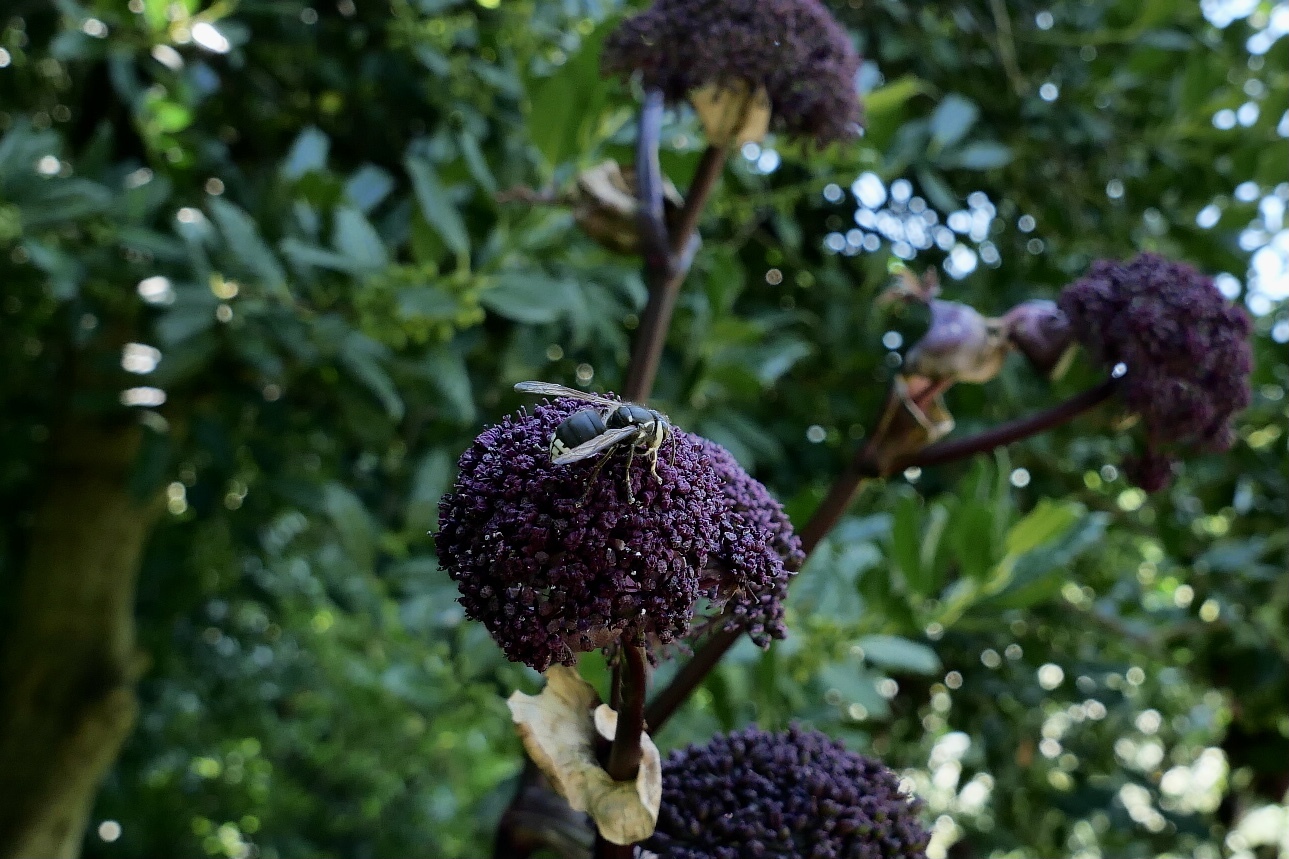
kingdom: Animalia
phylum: Arthropoda
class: Insecta
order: Hymenoptera
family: Vespidae
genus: Dolichovespula
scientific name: Dolichovespula maculata
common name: Bald-faced hornet
